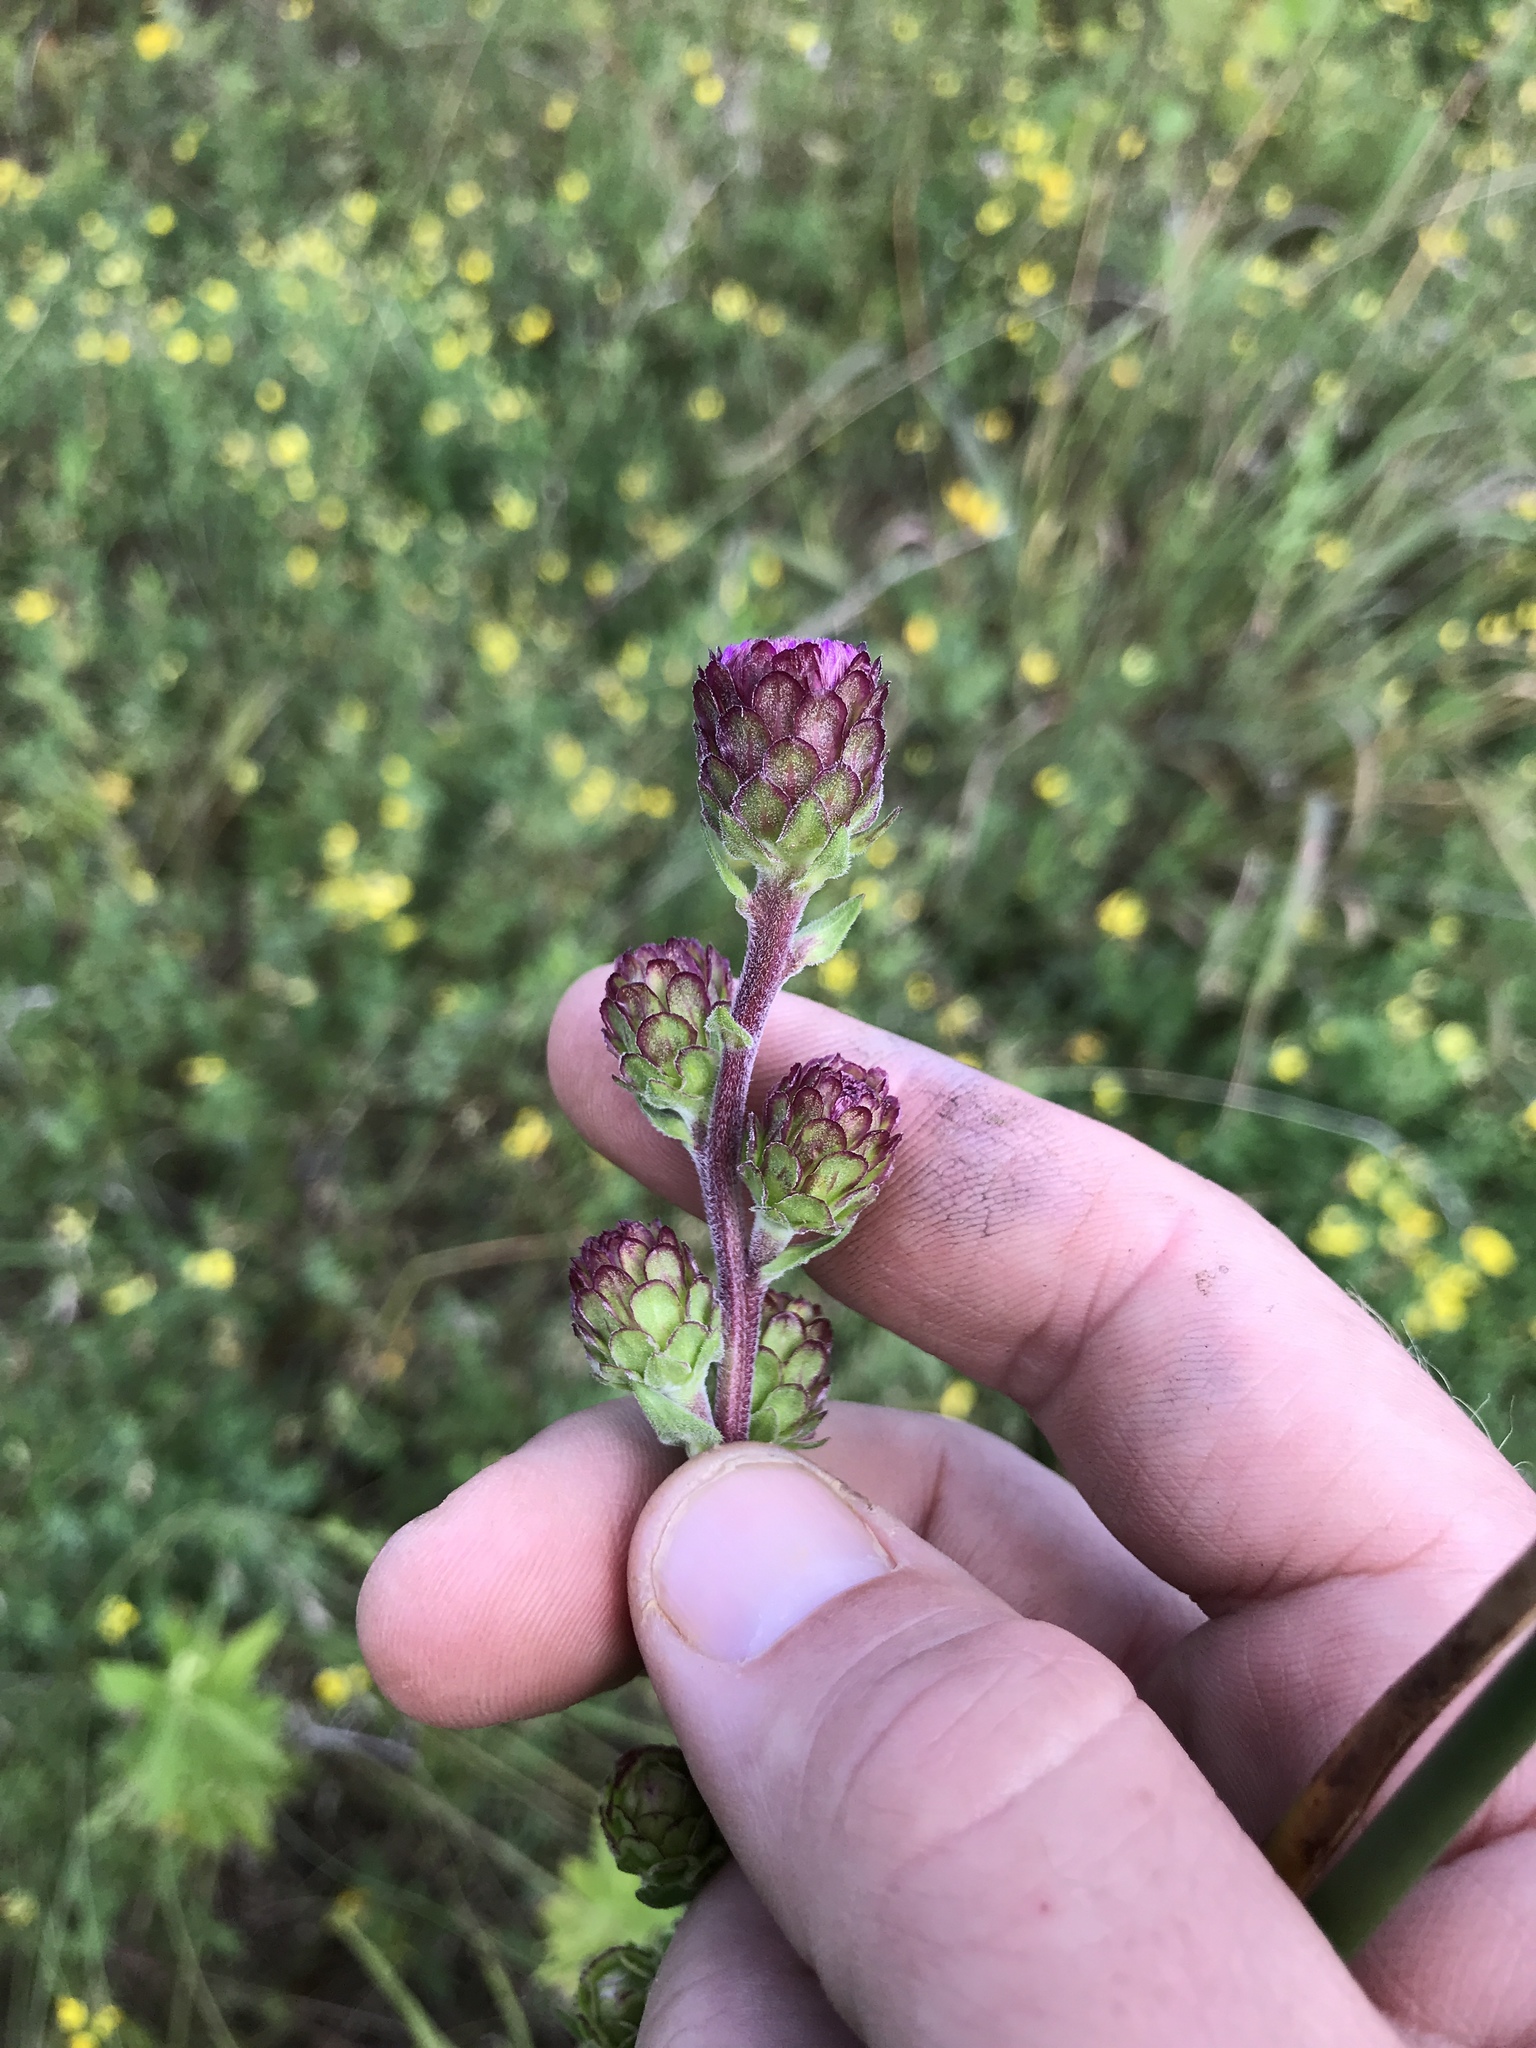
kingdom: Plantae
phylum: Tracheophyta
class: Magnoliopsida
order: Asterales
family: Asteraceae
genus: Liatris
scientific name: Liatris scariosa
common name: Northern gayfeather
